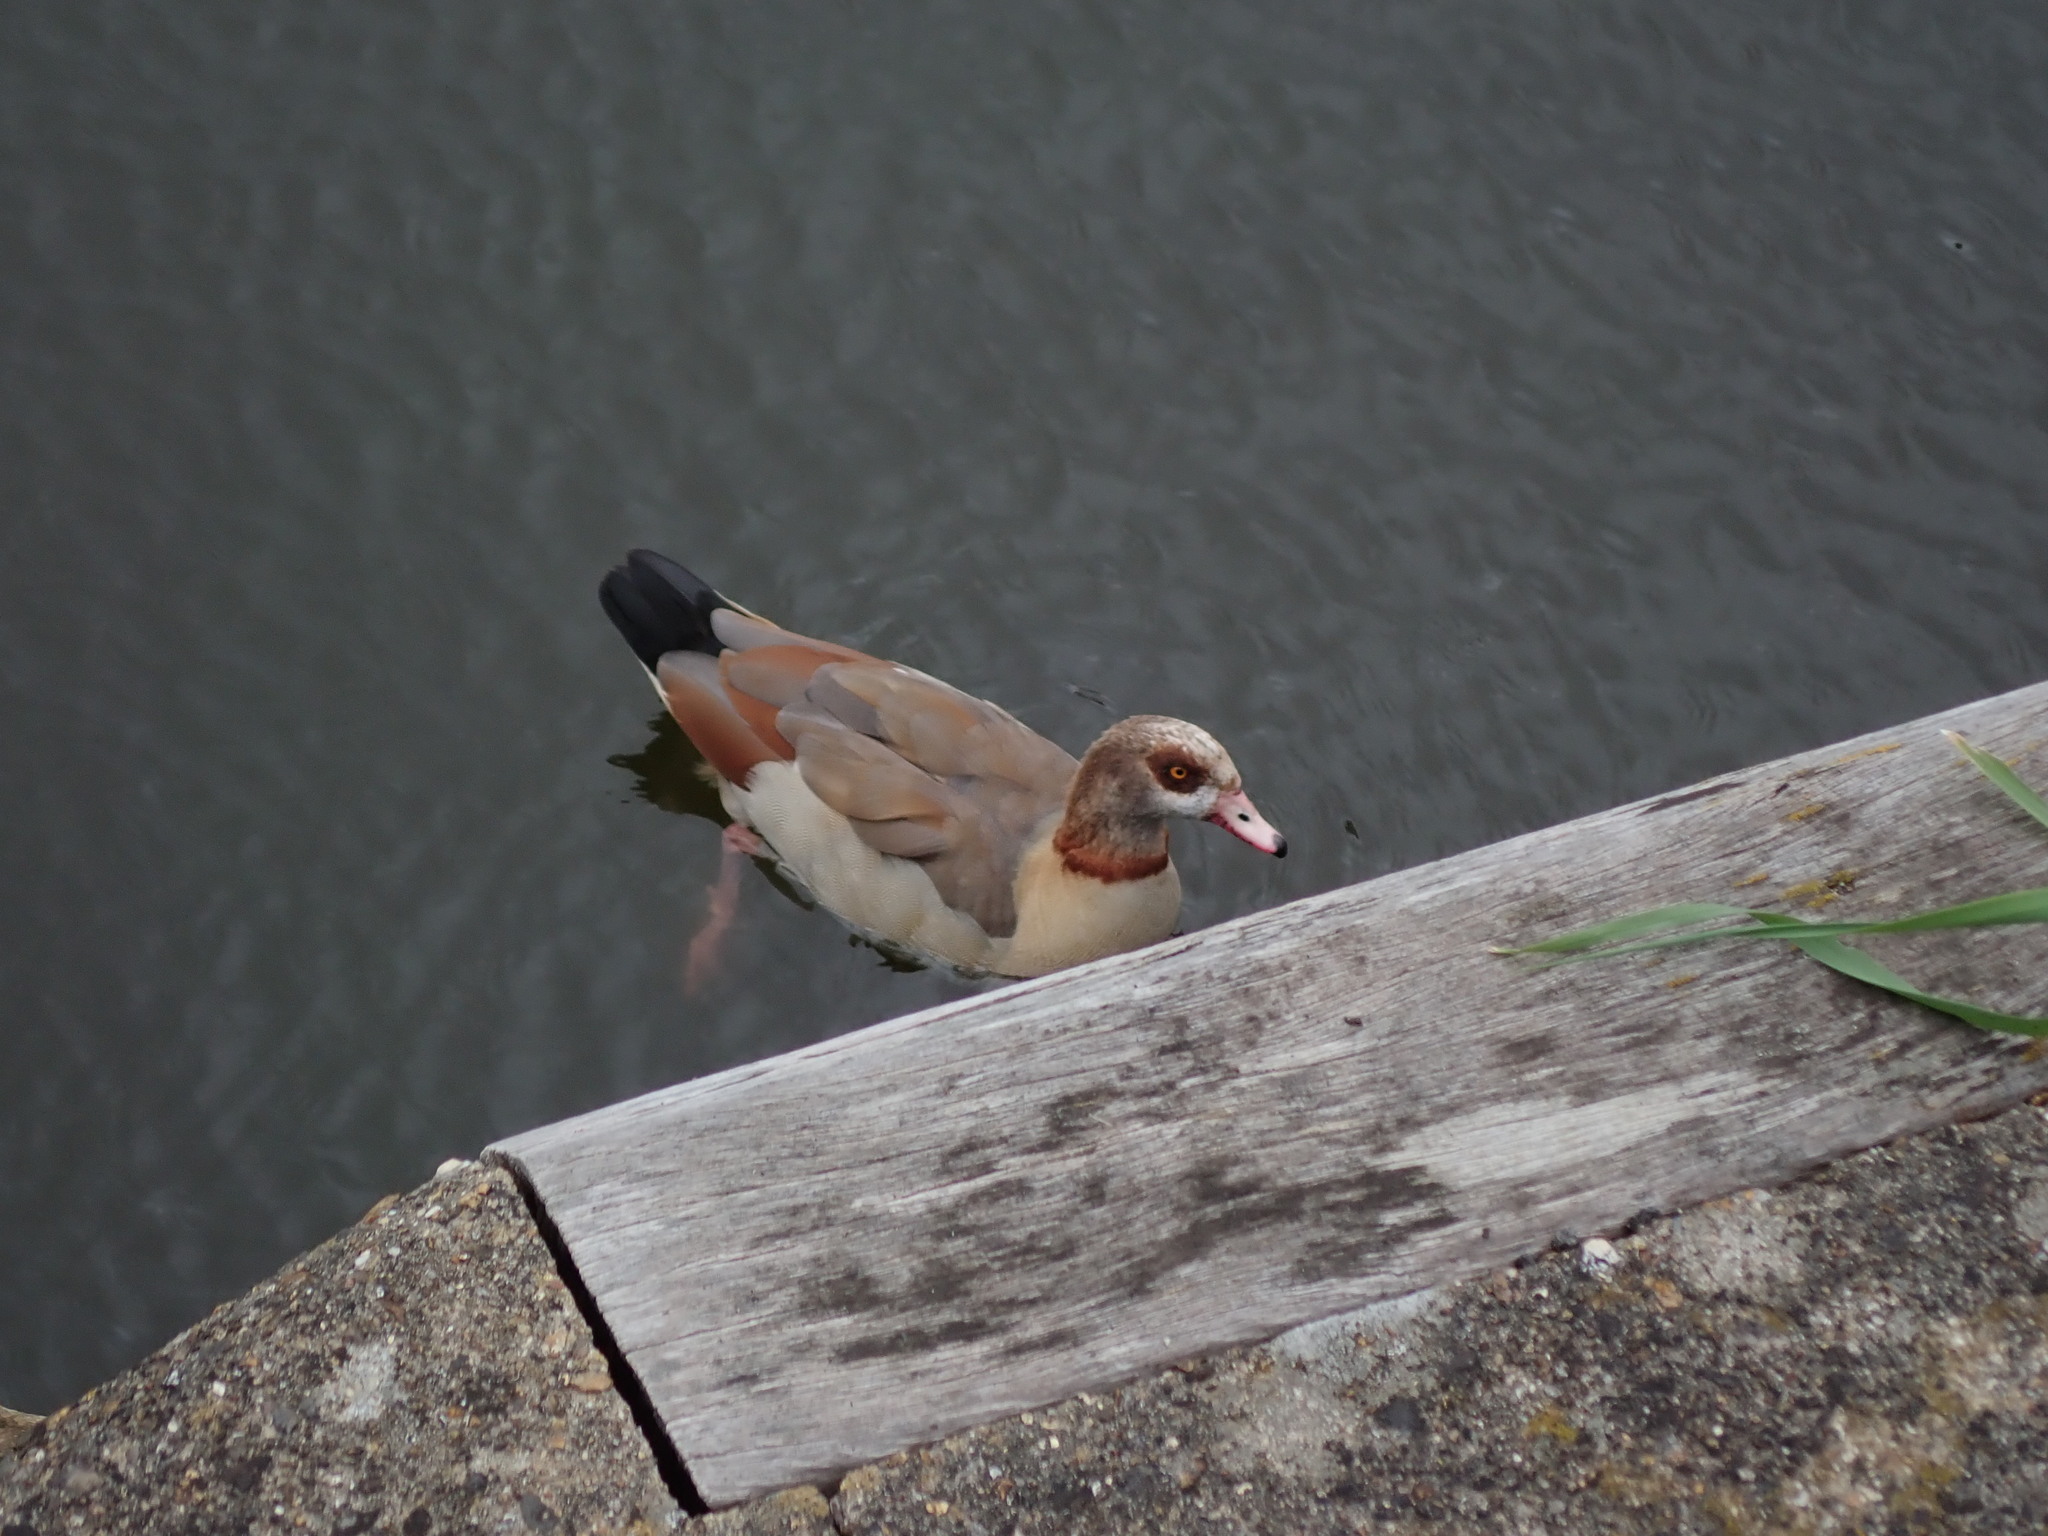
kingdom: Animalia
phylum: Chordata
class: Aves
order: Anseriformes
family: Anatidae
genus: Alopochen
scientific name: Alopochen aegyptiaca
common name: Egyptian goose
